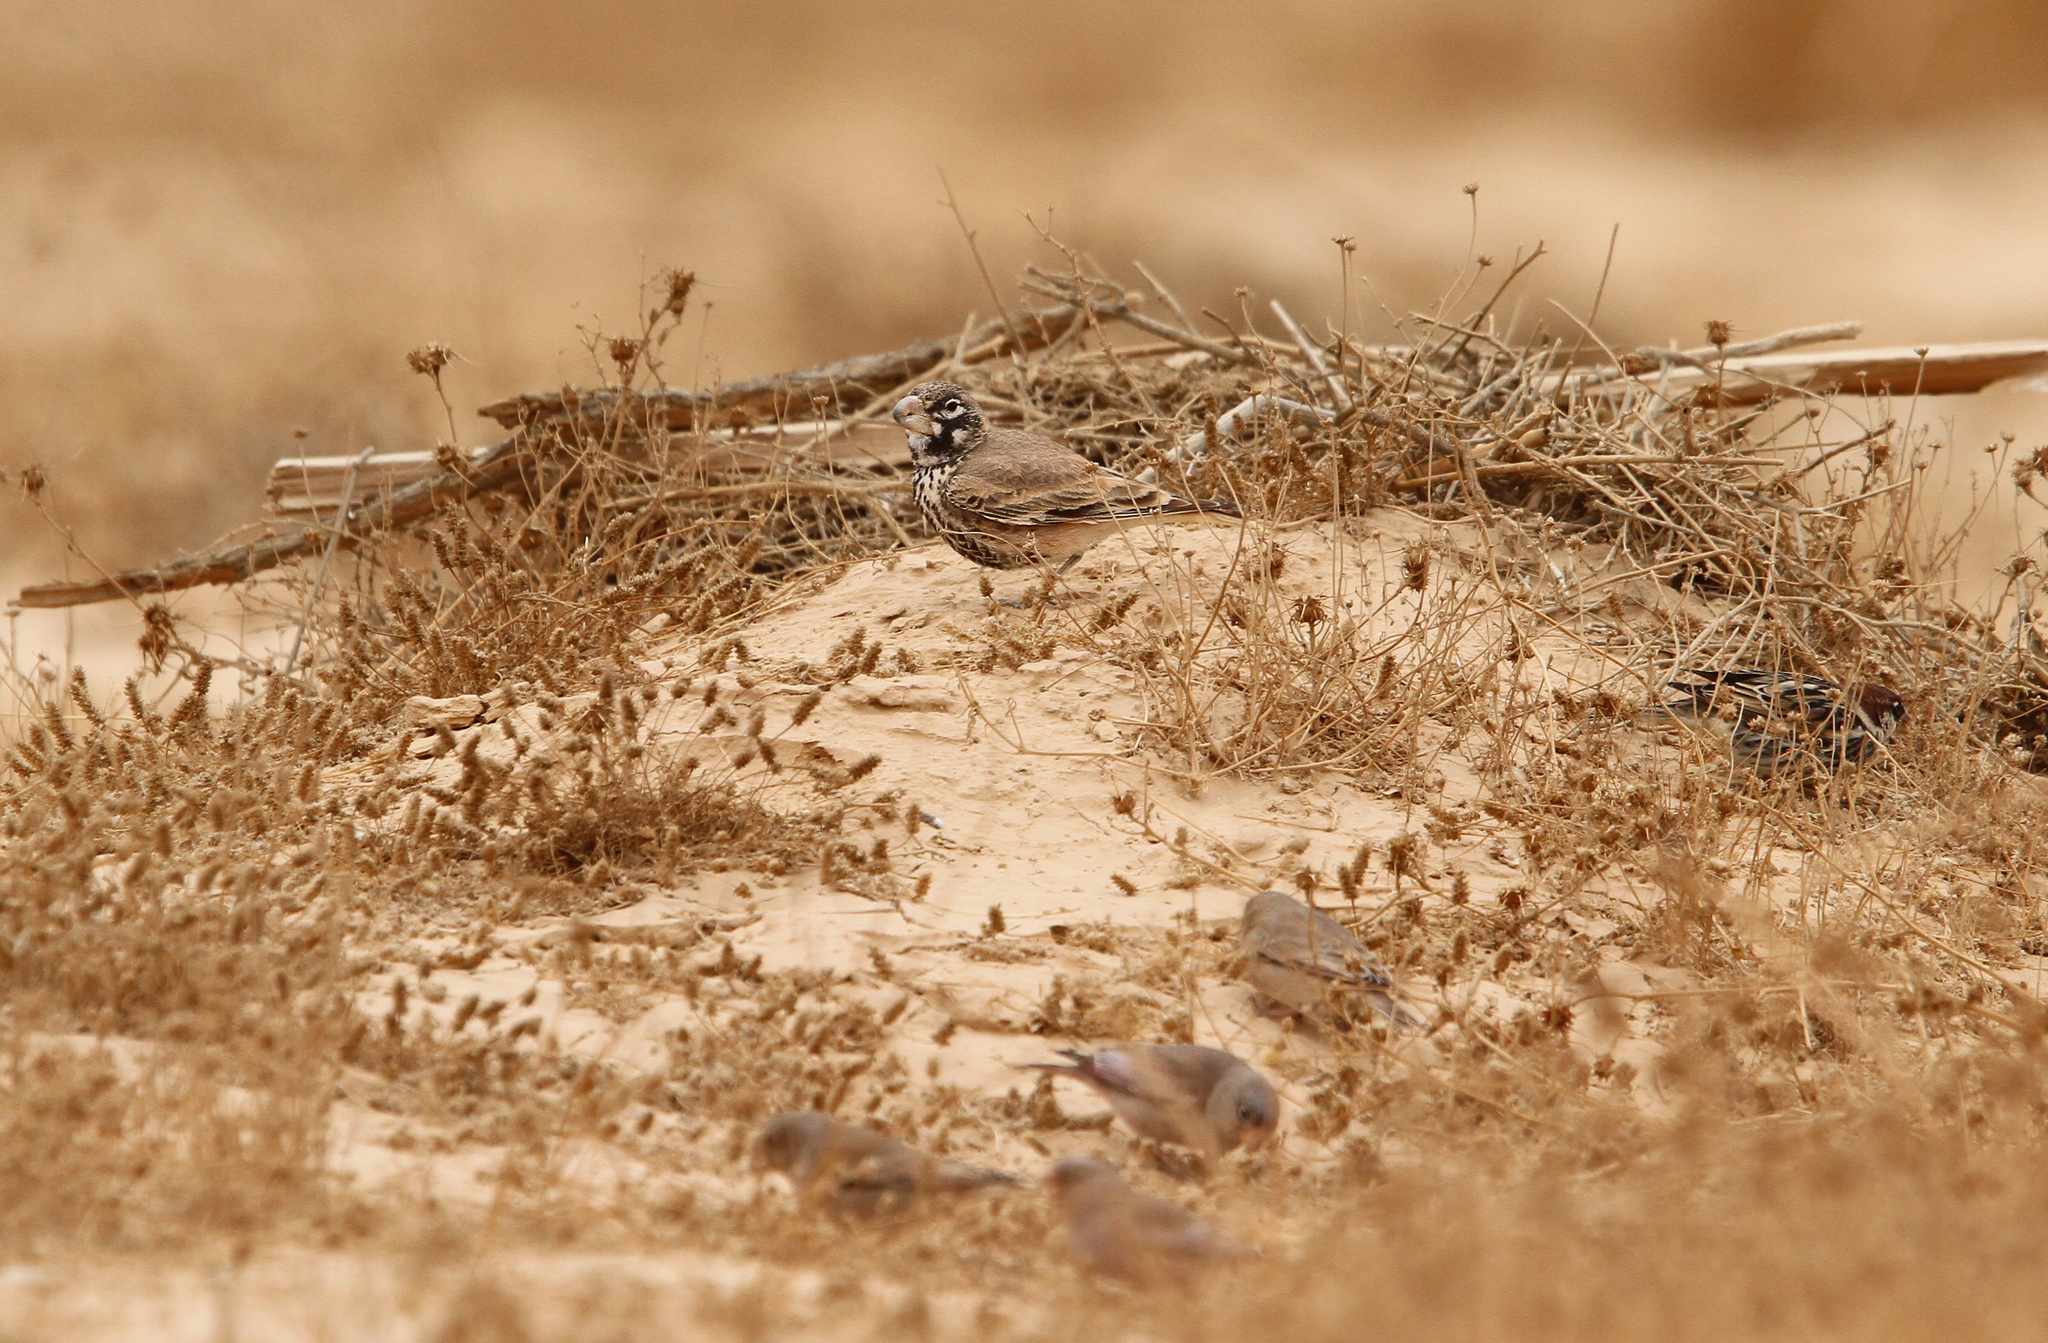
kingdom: Animalia
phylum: Chordata
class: Aves
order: Passeriformes
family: Alaudidae
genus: Ramphocoris
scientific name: Ramphocoris clotbey
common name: Thick-billed lark
